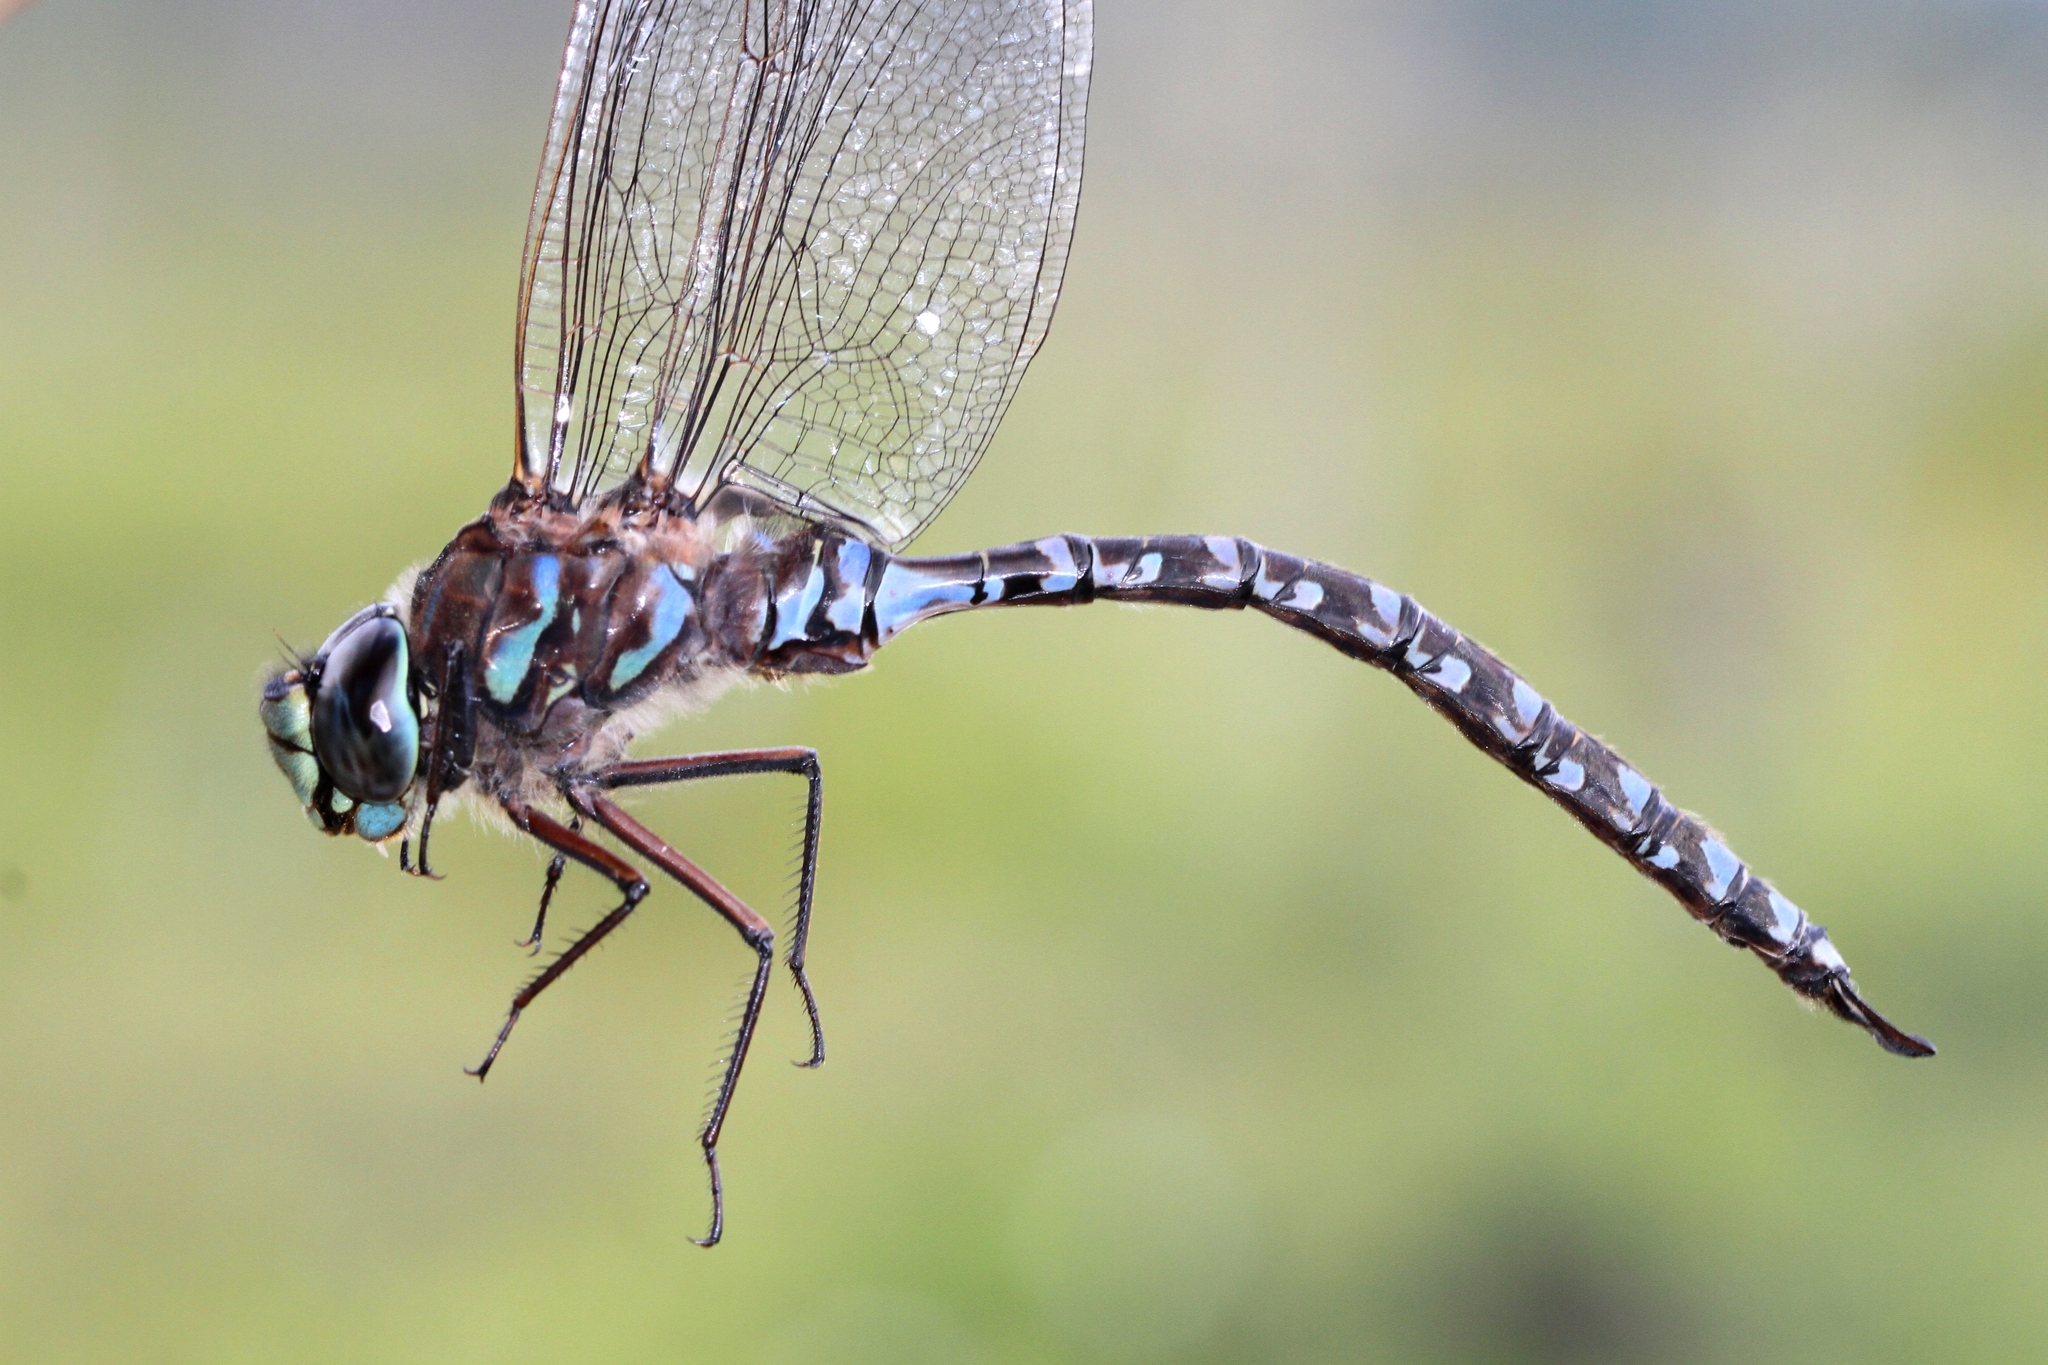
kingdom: Animalia
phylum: Arthropoda
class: Insecta
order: Odonata
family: Aeshnidae
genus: Aeshna
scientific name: Aeshna eremita
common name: Lake darner
